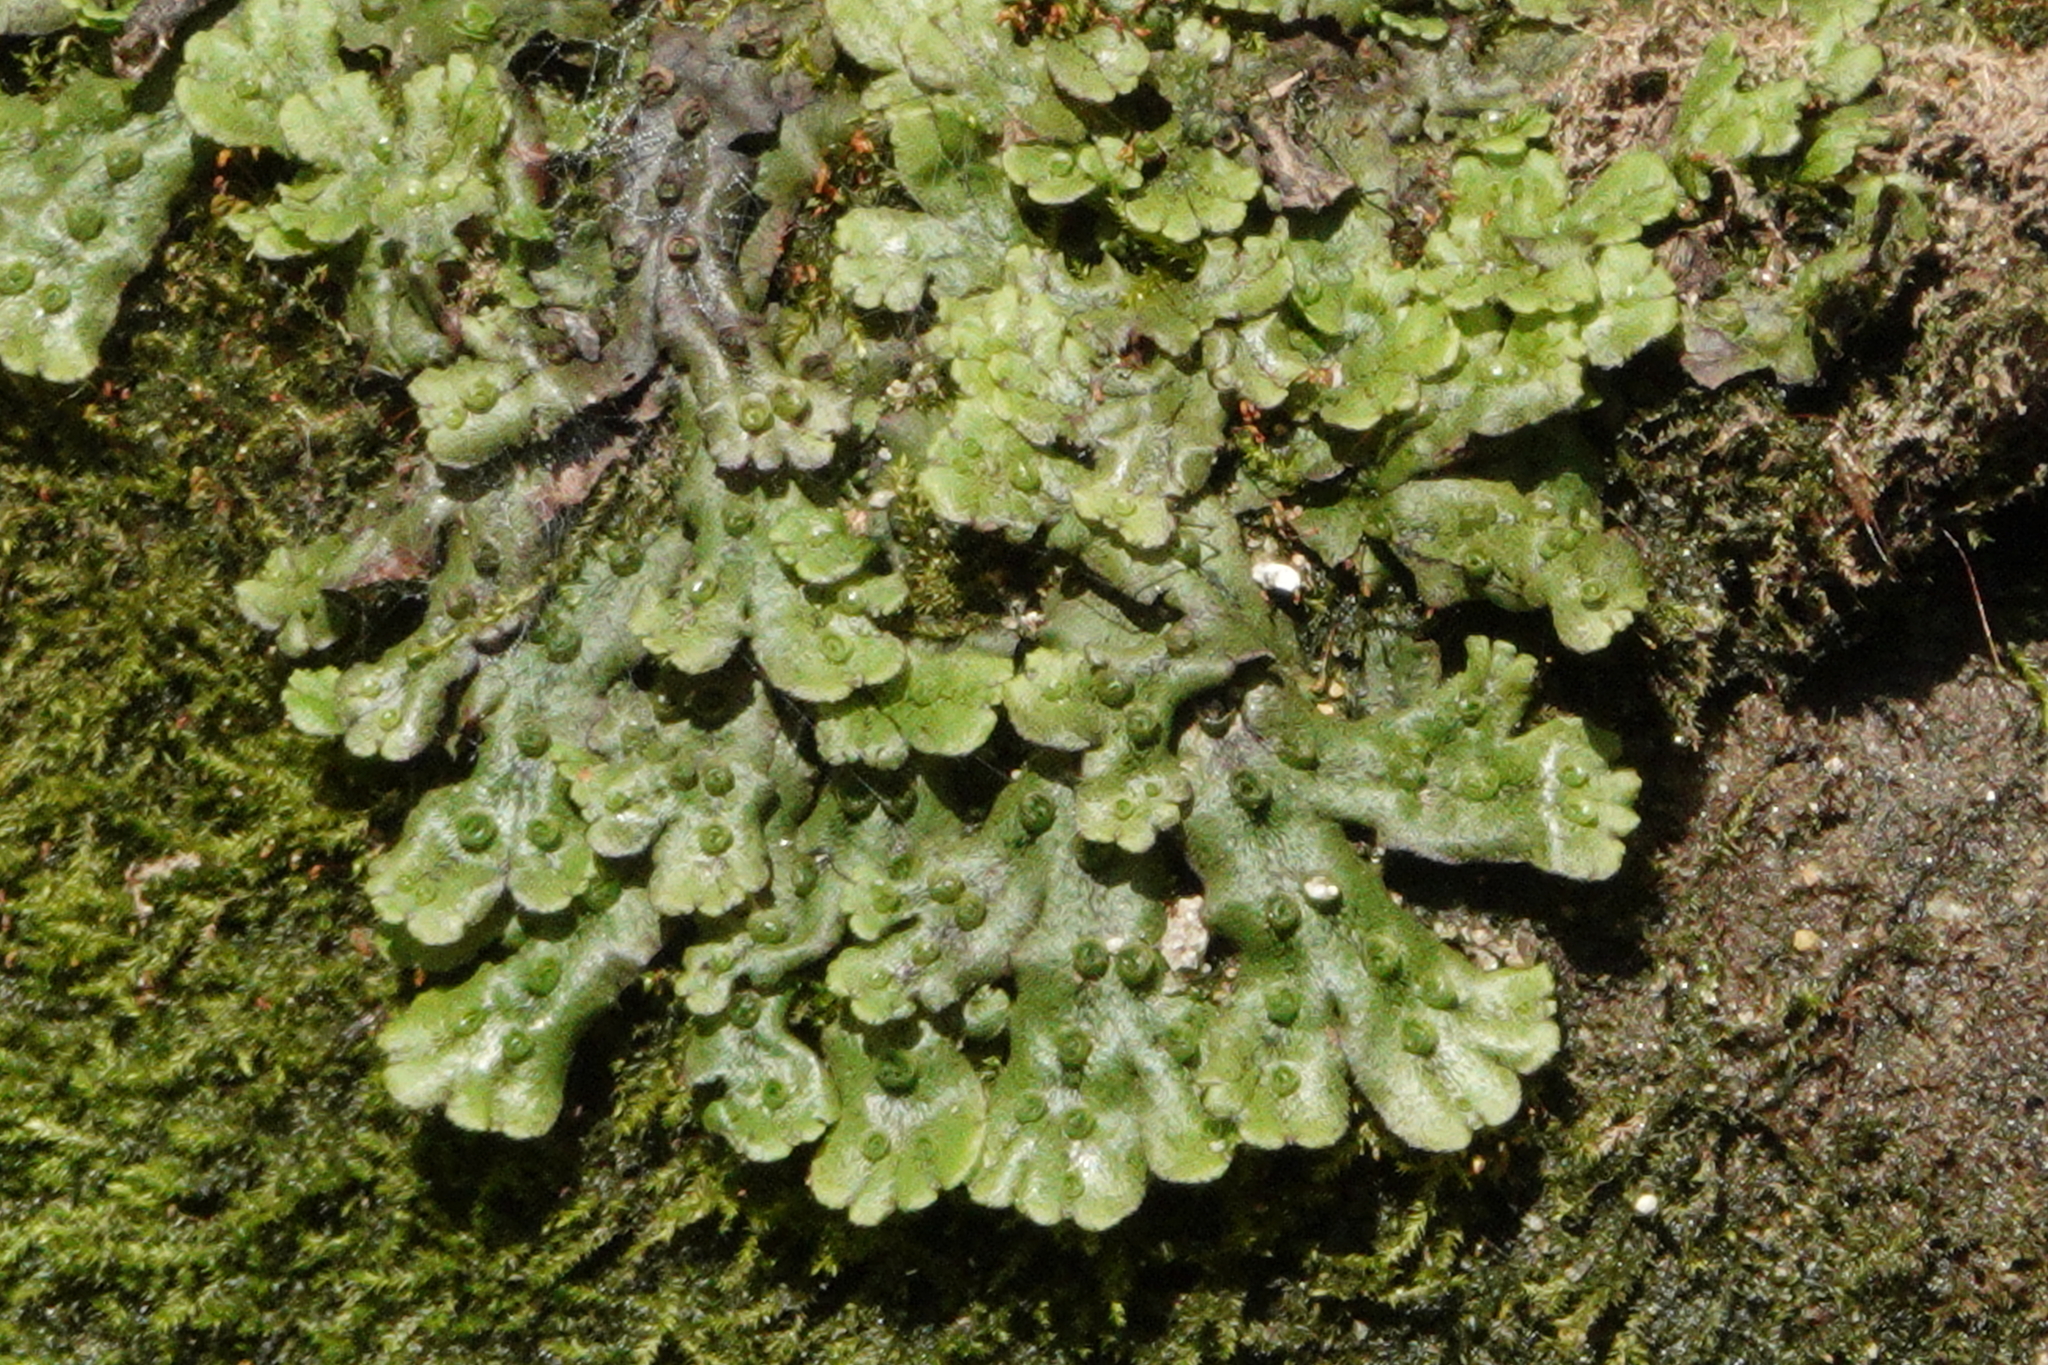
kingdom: Plantae
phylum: Marchantiophyta
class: Marchantiopsida
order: Marchantiales
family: Marchantiaceae
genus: Marchantia
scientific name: Marchantia polymorpha
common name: Common liverwort
